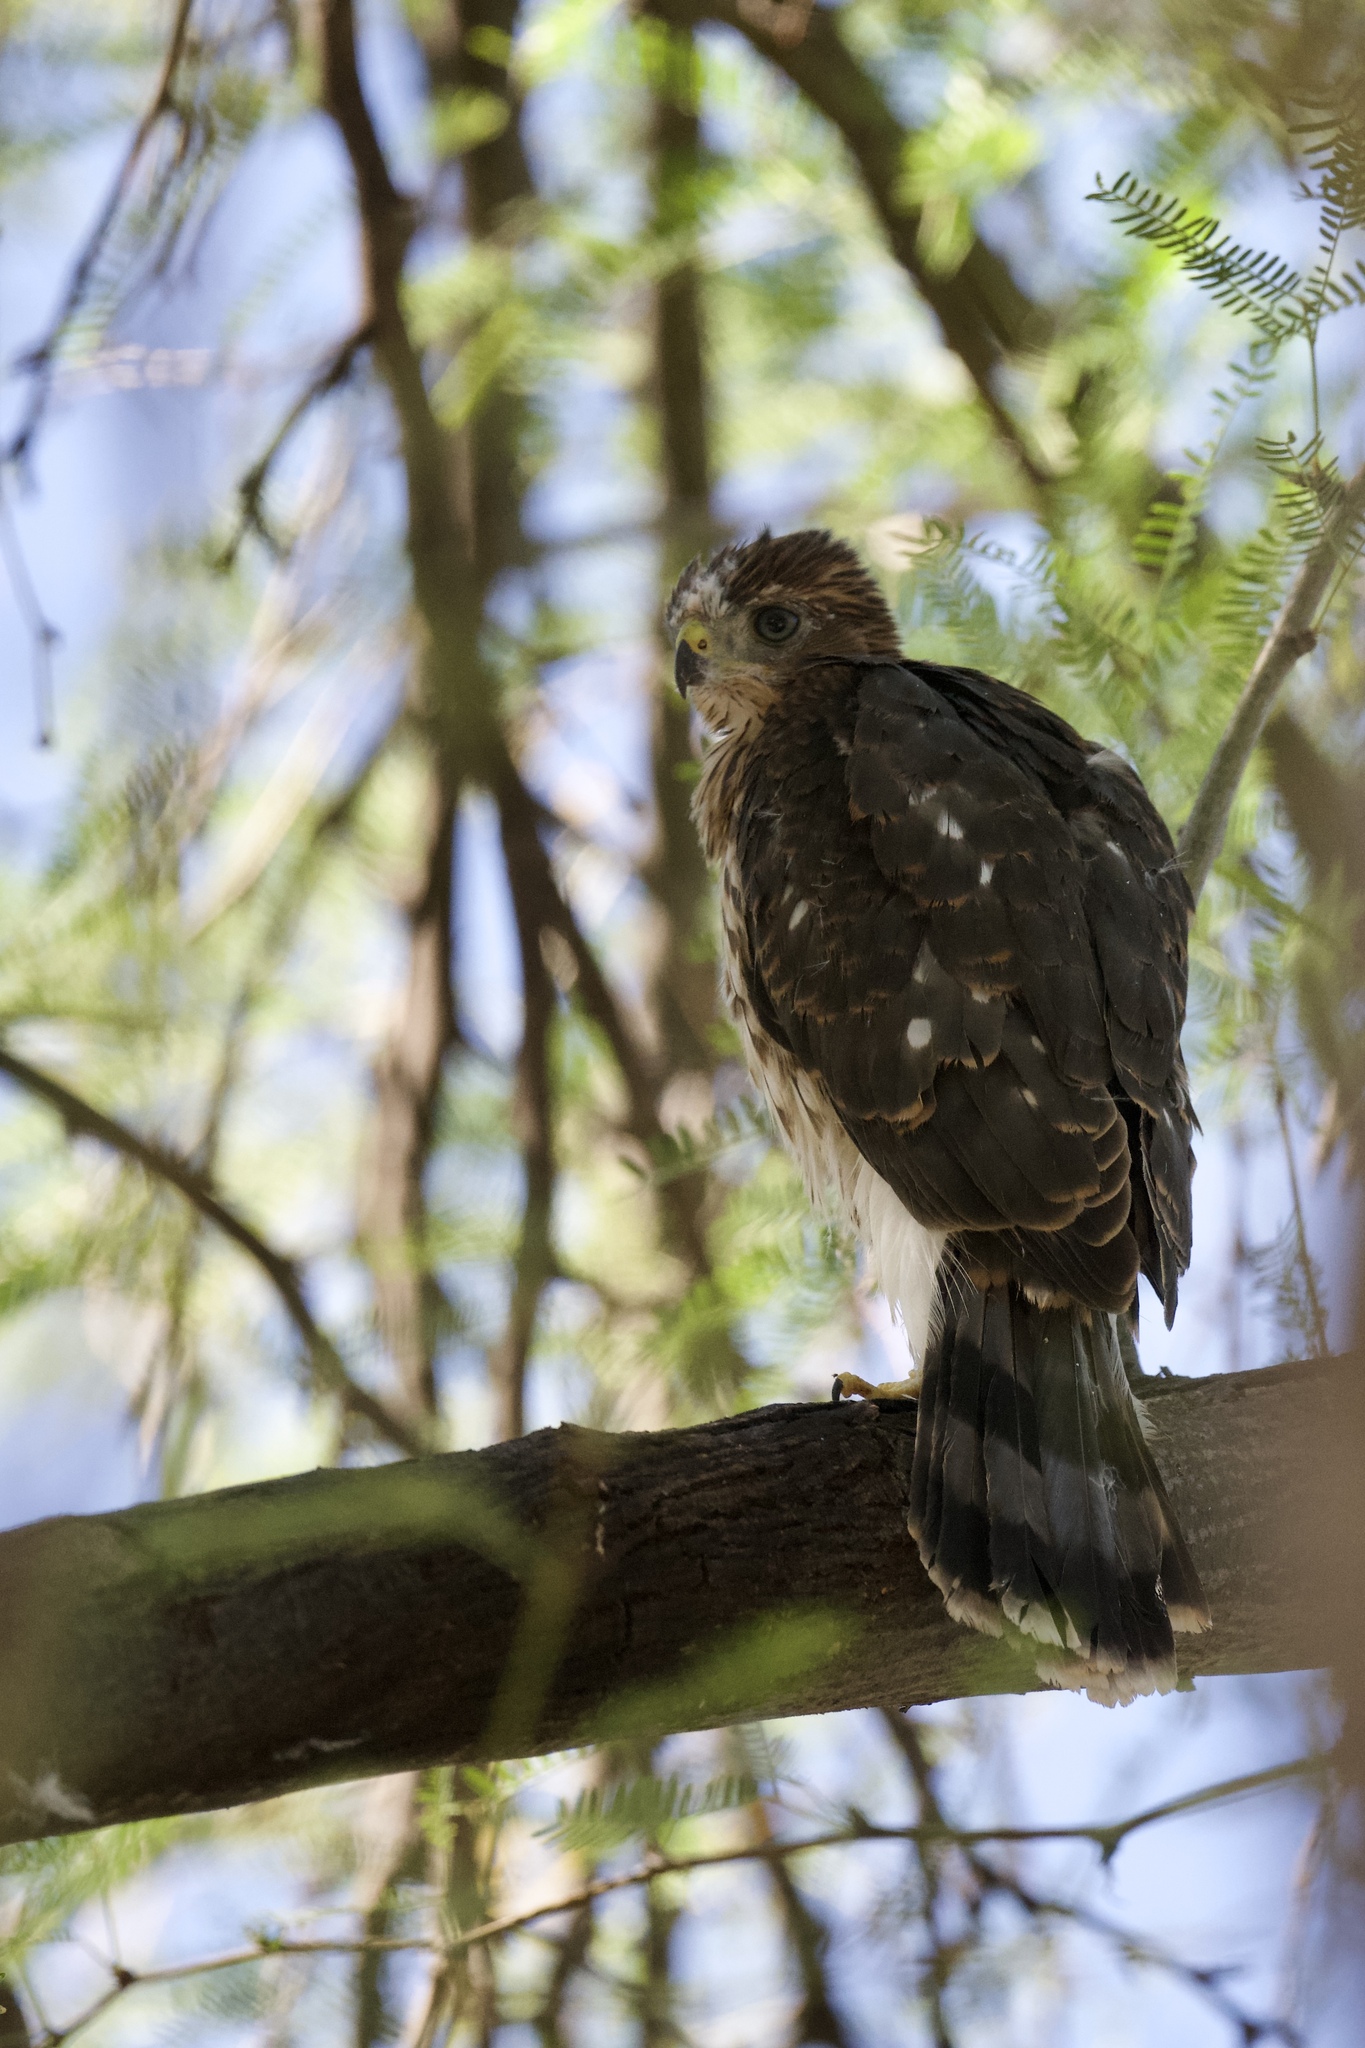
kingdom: Animalia
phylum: Chordata
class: Aves
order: Accipitriformes
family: Accipitridae
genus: Accipiter
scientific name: Accipiter cooperii
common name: Cooper's hawk
